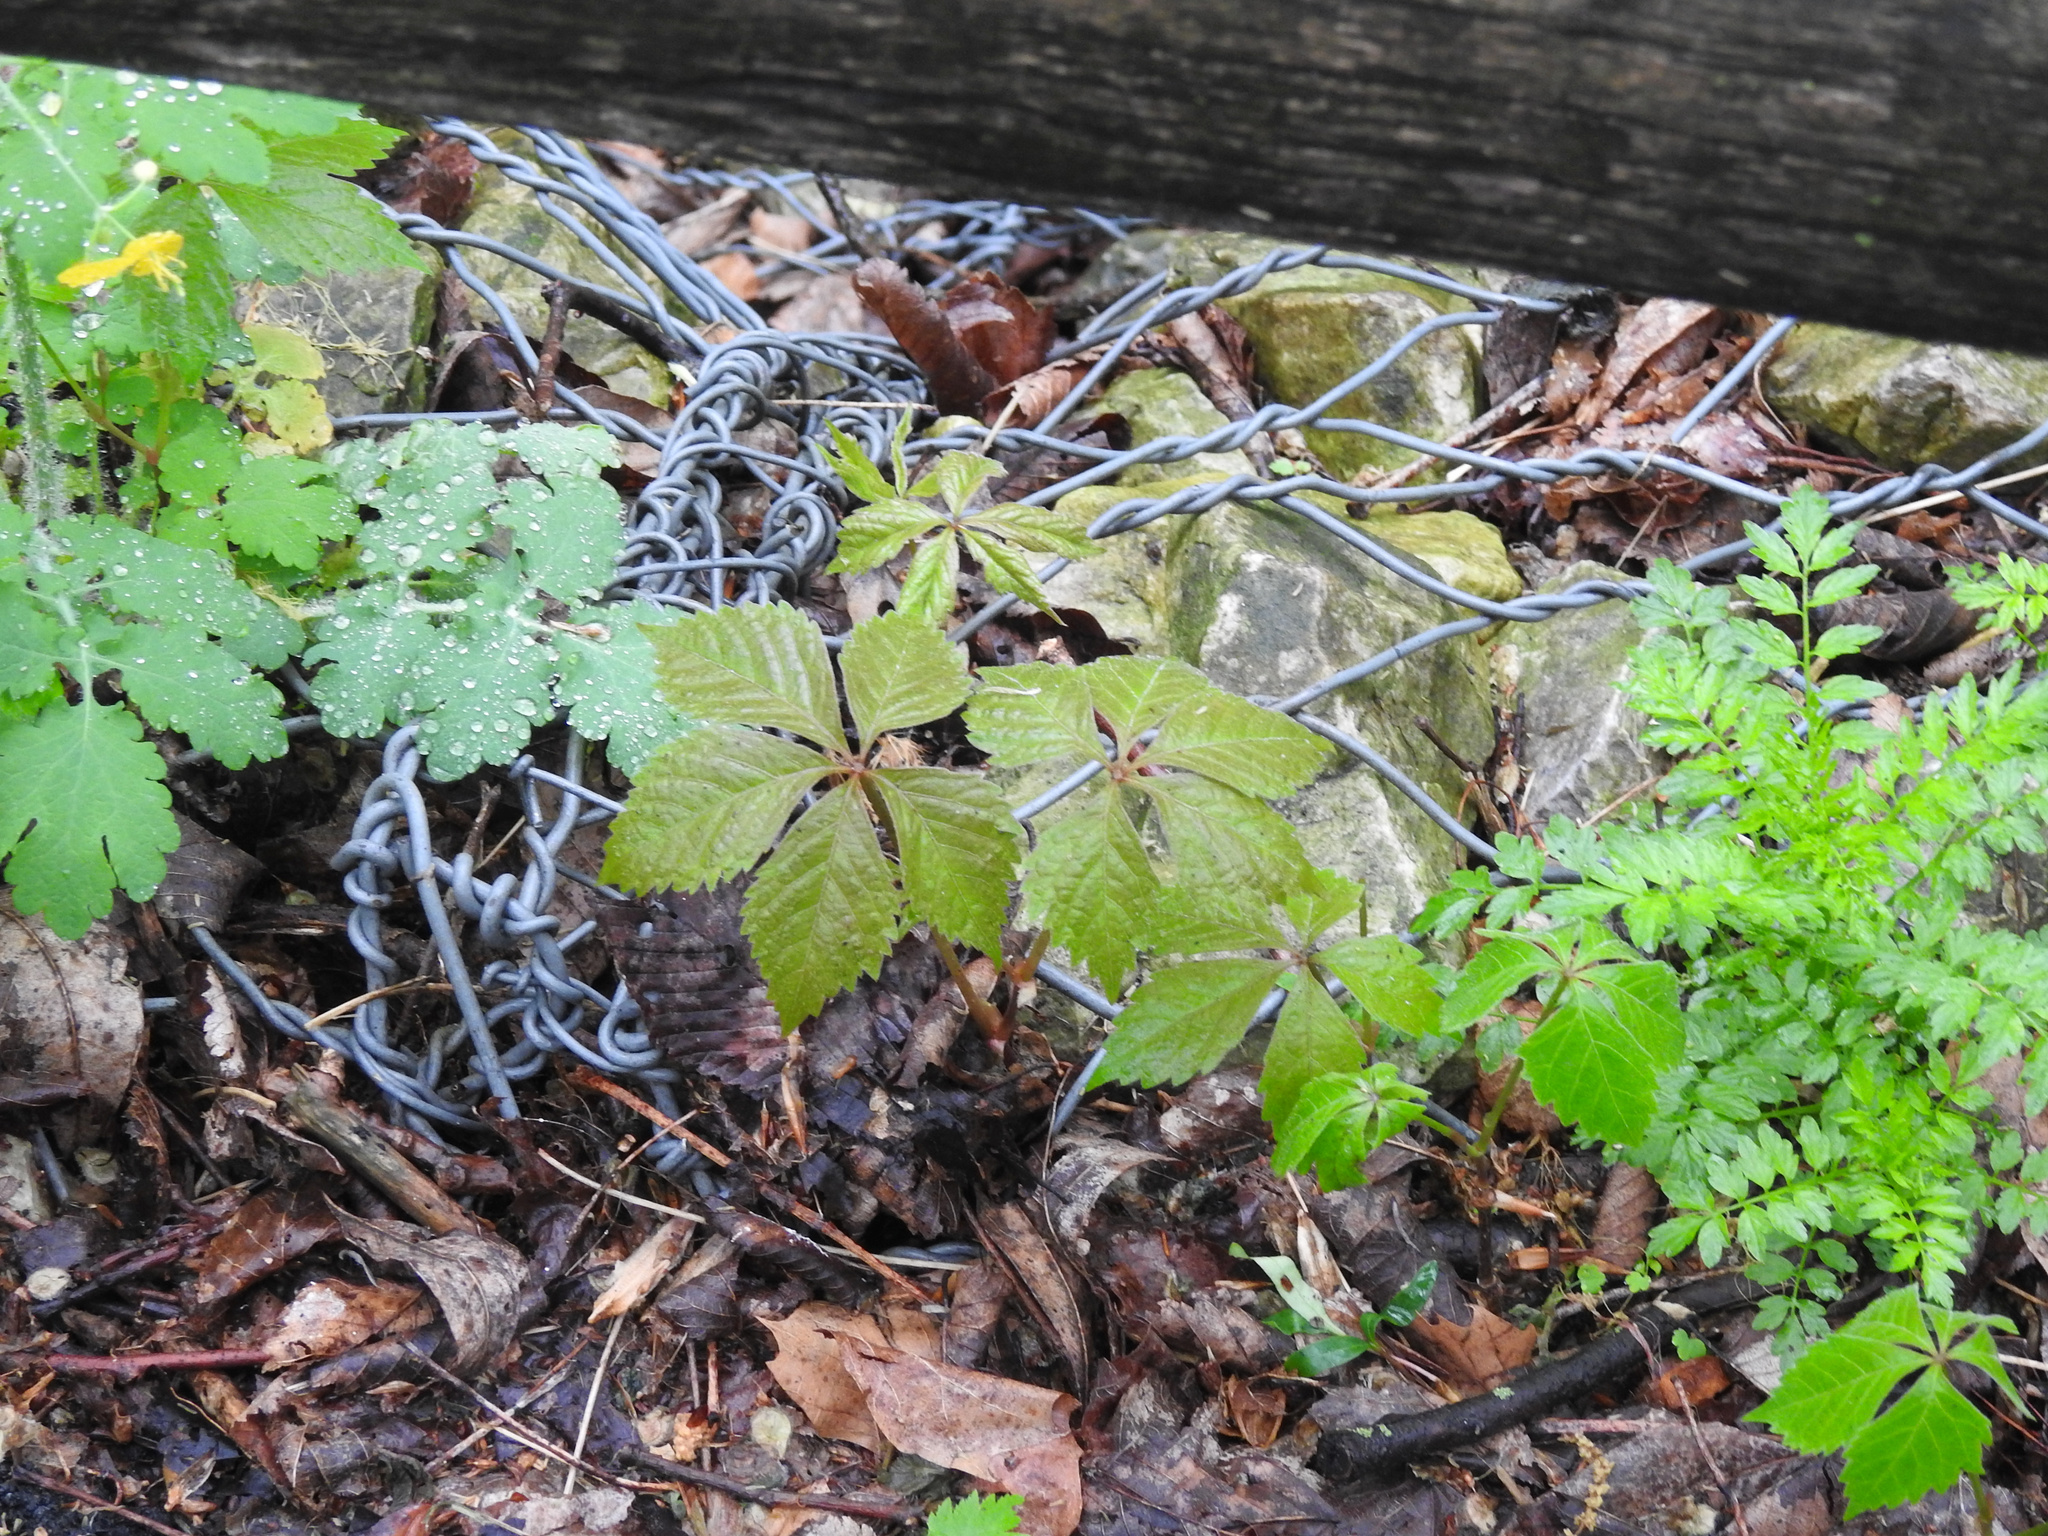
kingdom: Plantae
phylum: Tracheophyta
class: Magnoliopsida
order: Vitales
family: Vitaceae
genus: Parthenocissus
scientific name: Parthenocissus quinquefolia
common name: Virginia-creeper
